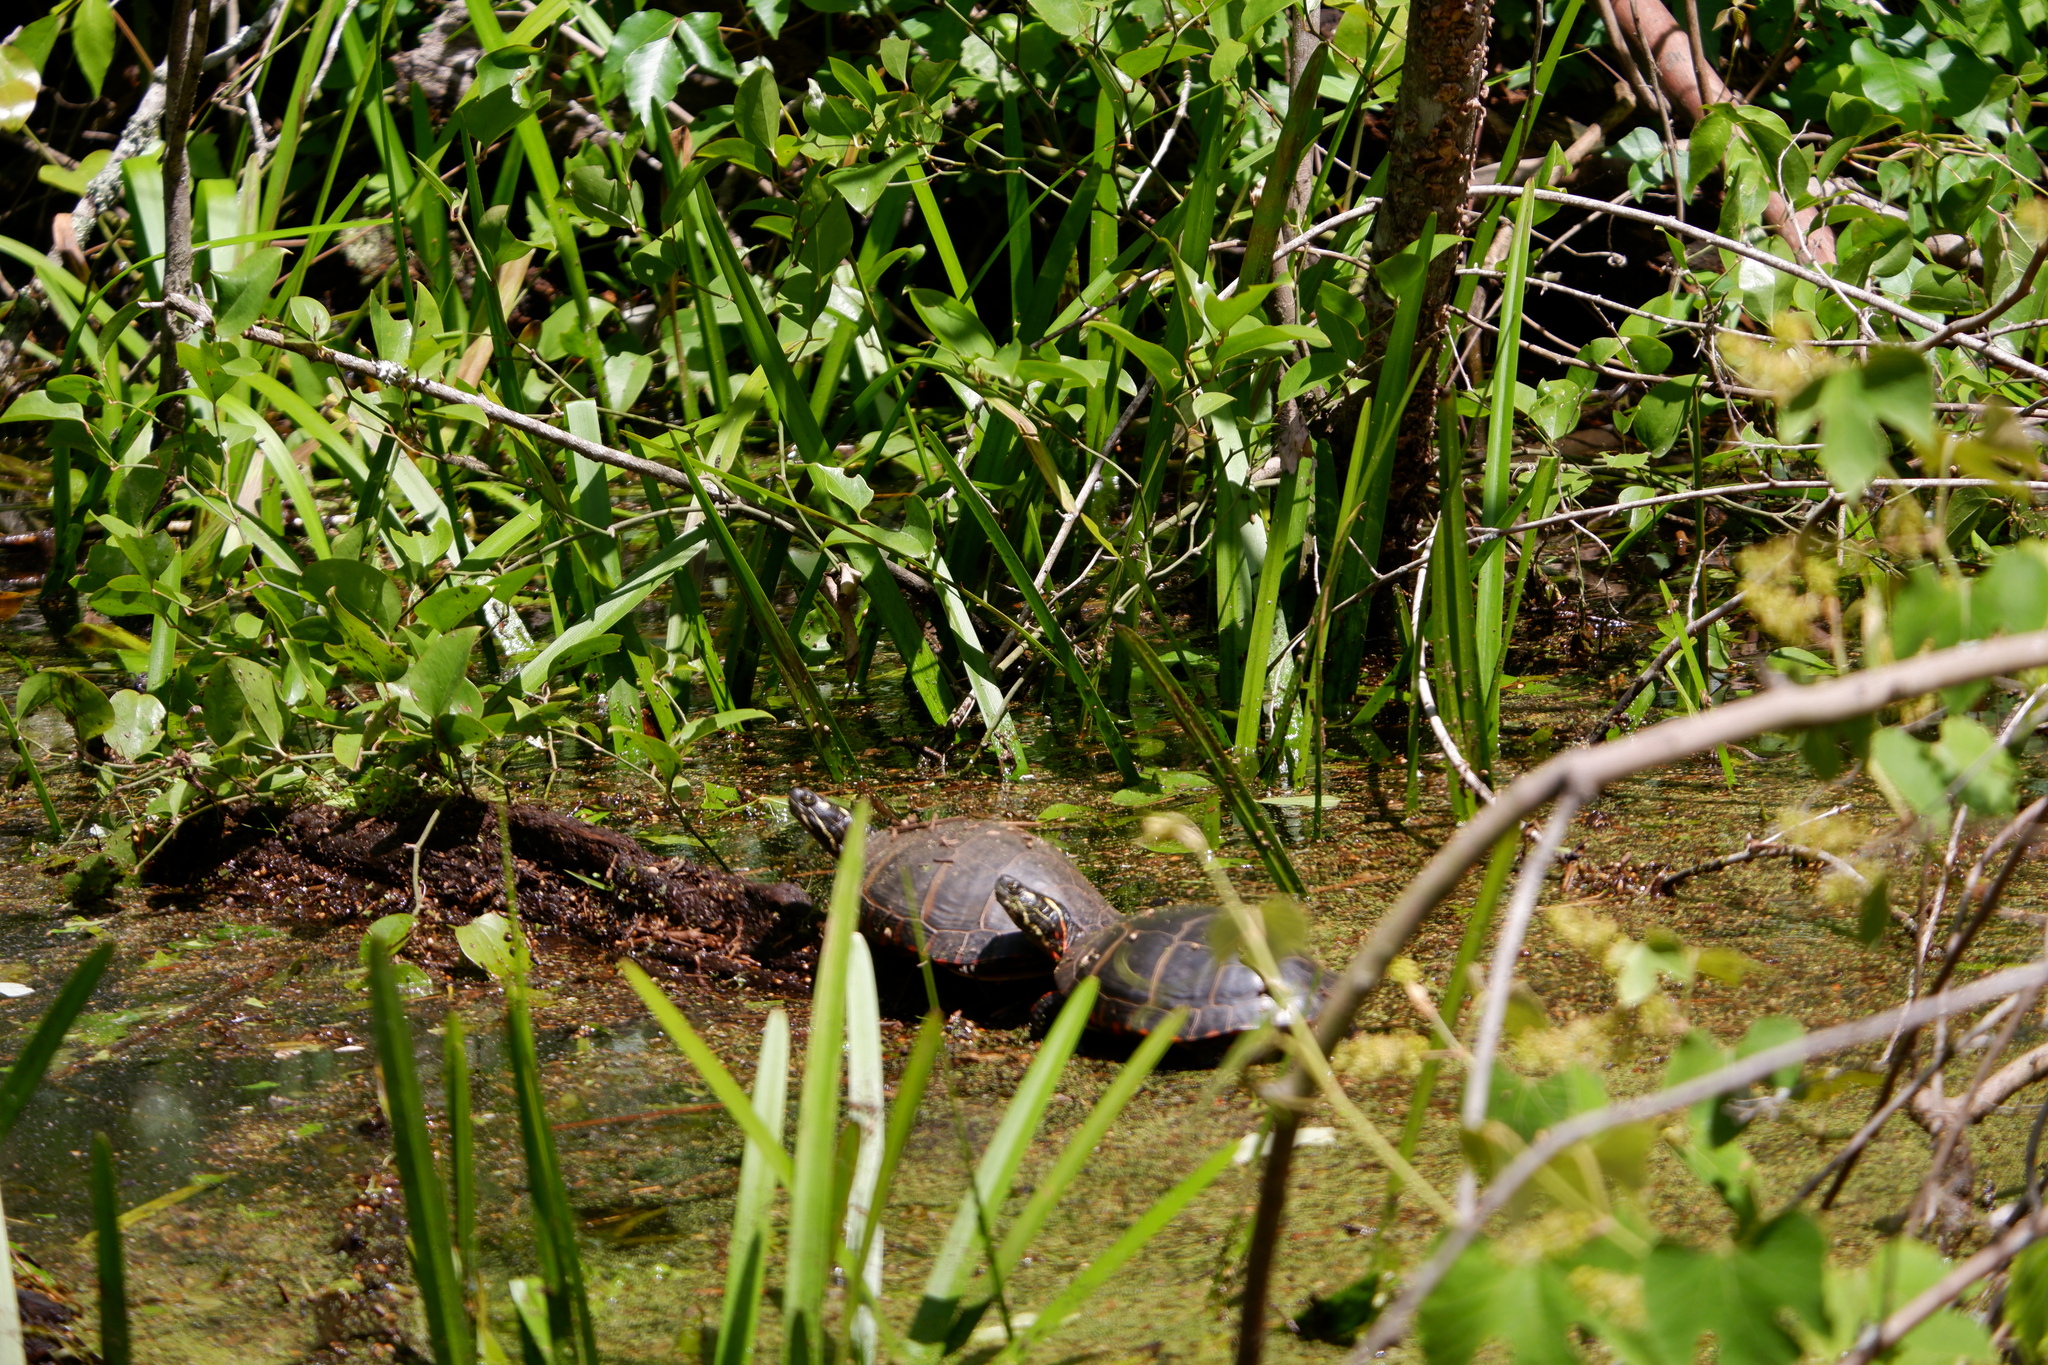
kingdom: Animalia
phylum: Chordata
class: Testudines
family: Emydidae
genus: Chrysemys
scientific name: Chrysemys picta
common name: Painted turtle
